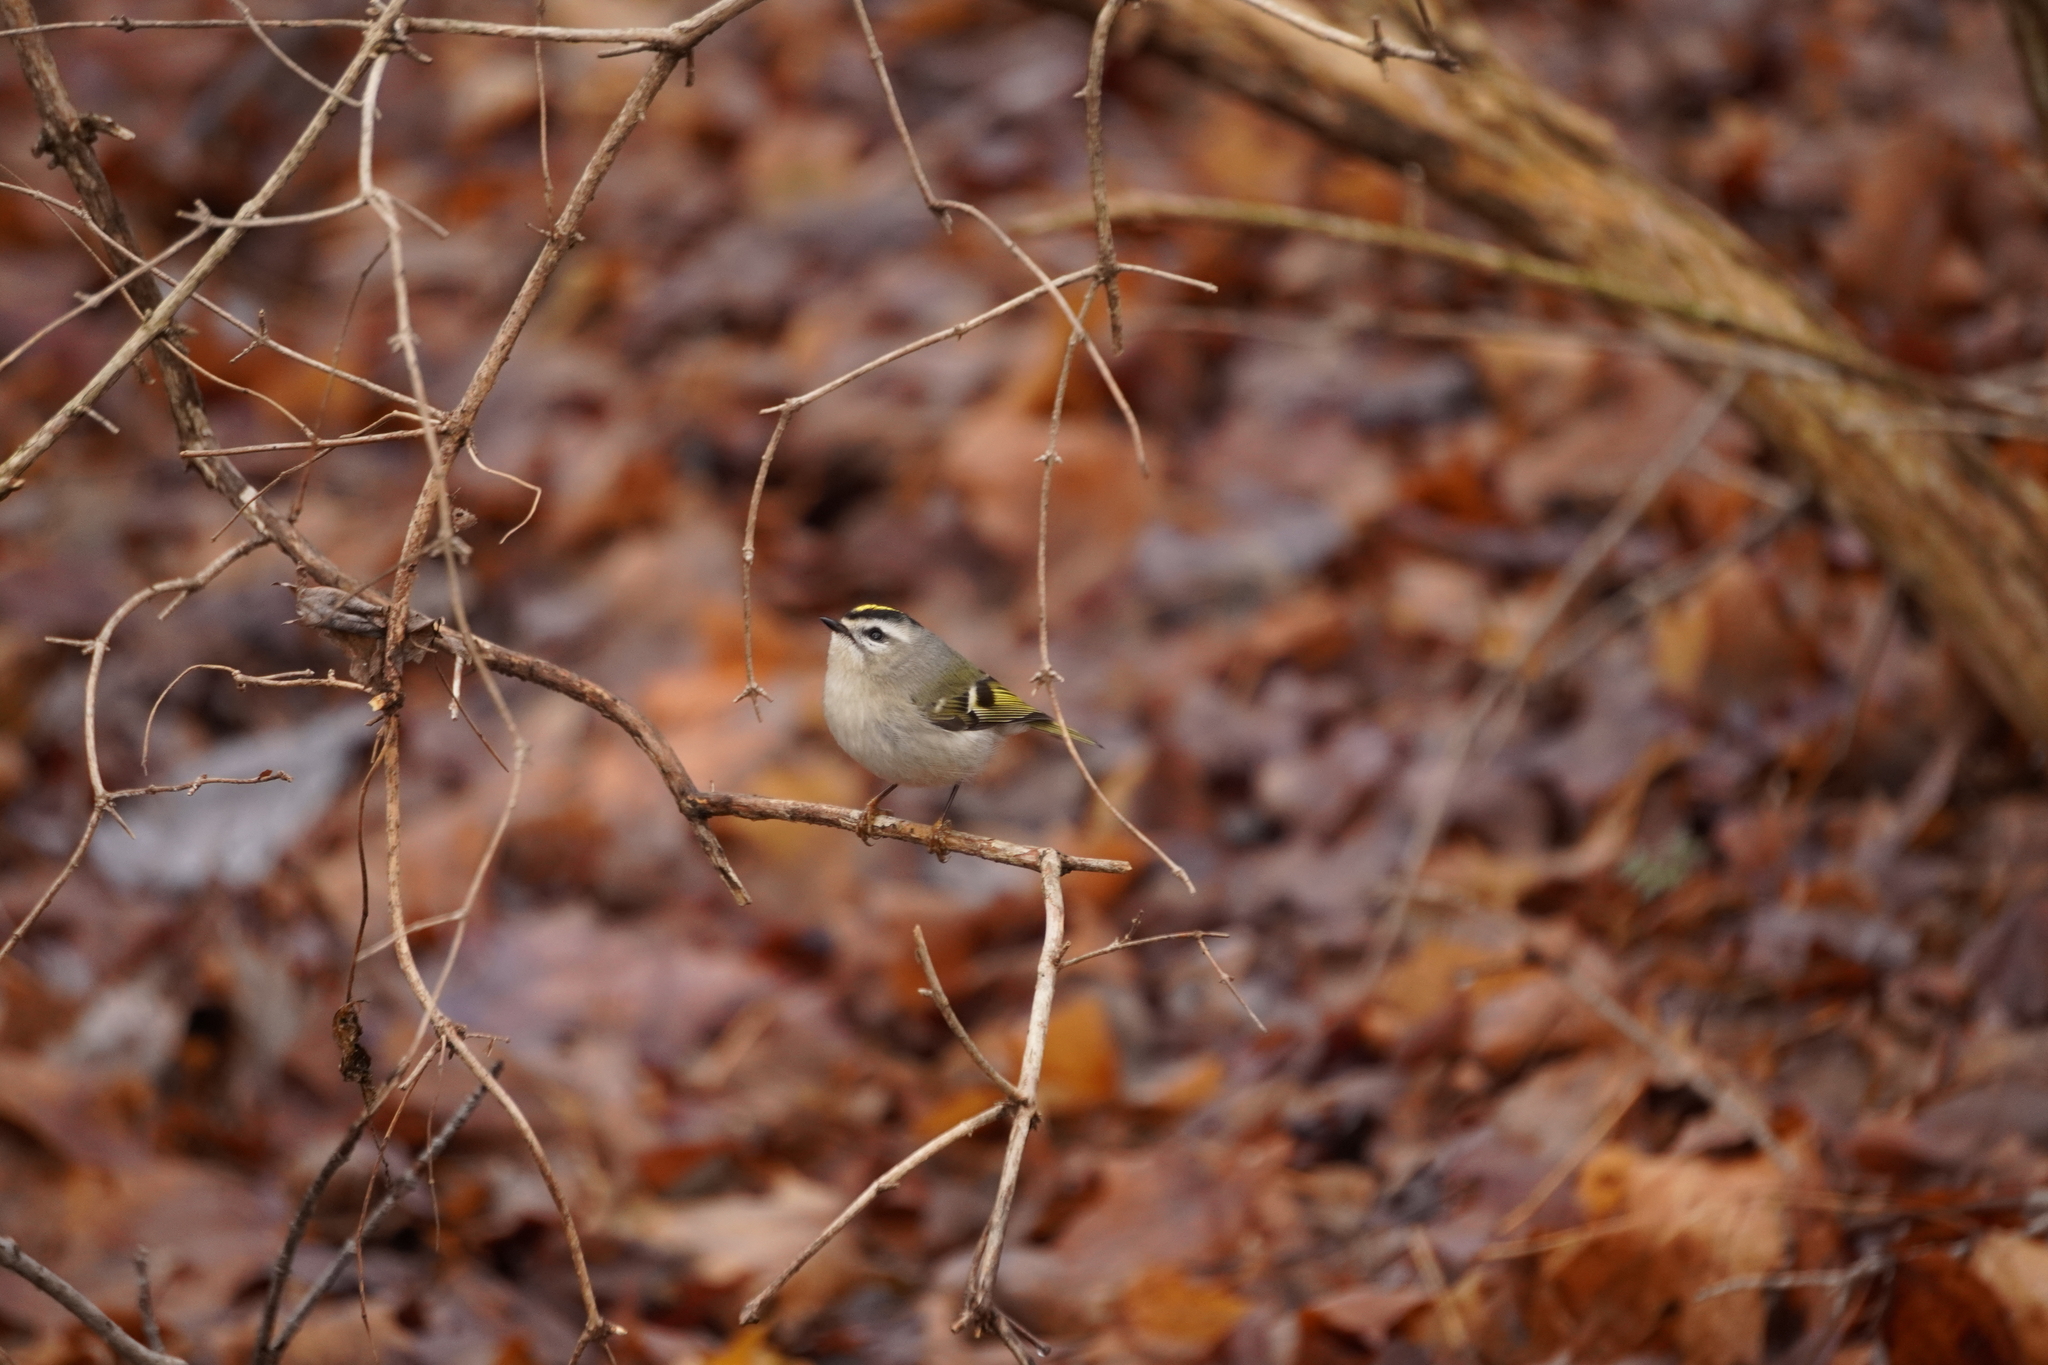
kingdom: Animalia
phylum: Chordata
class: Aves
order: Passeriformes
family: Regulidae
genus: Regulus
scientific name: Regulus satrapa
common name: Golden-crowned kinglet
